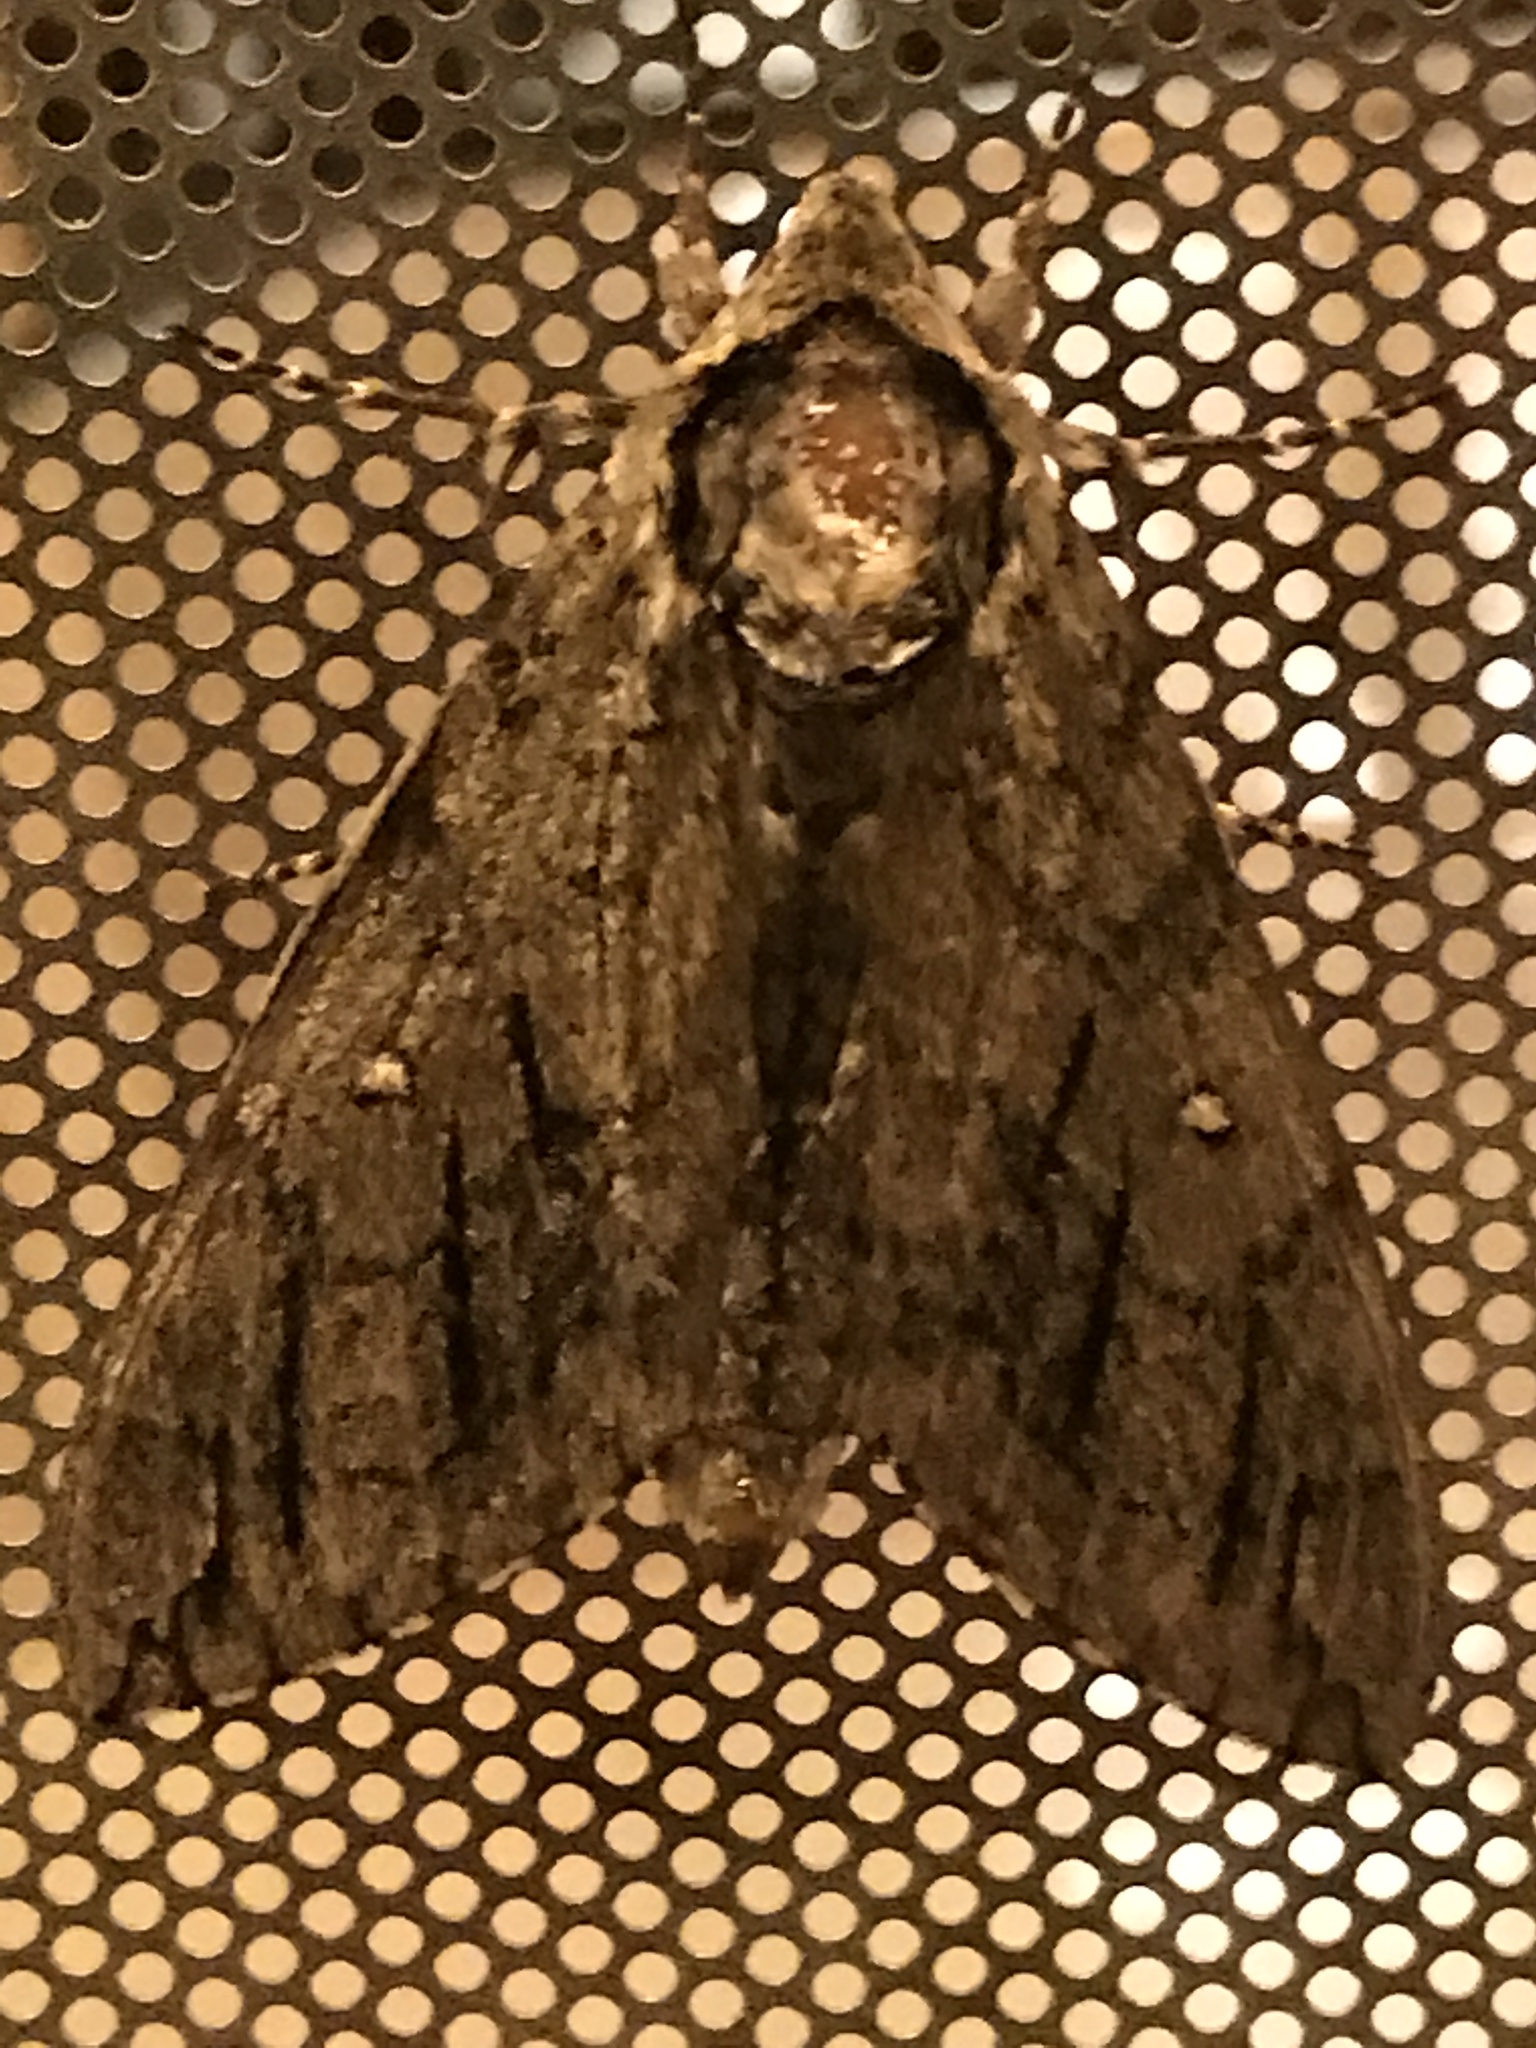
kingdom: Animalia
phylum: Arthropoda
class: Insecta
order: Lepidoptera
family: Sphingidae
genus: Ceratomia
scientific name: Ceratomia undulosa
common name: Waved sphinx
